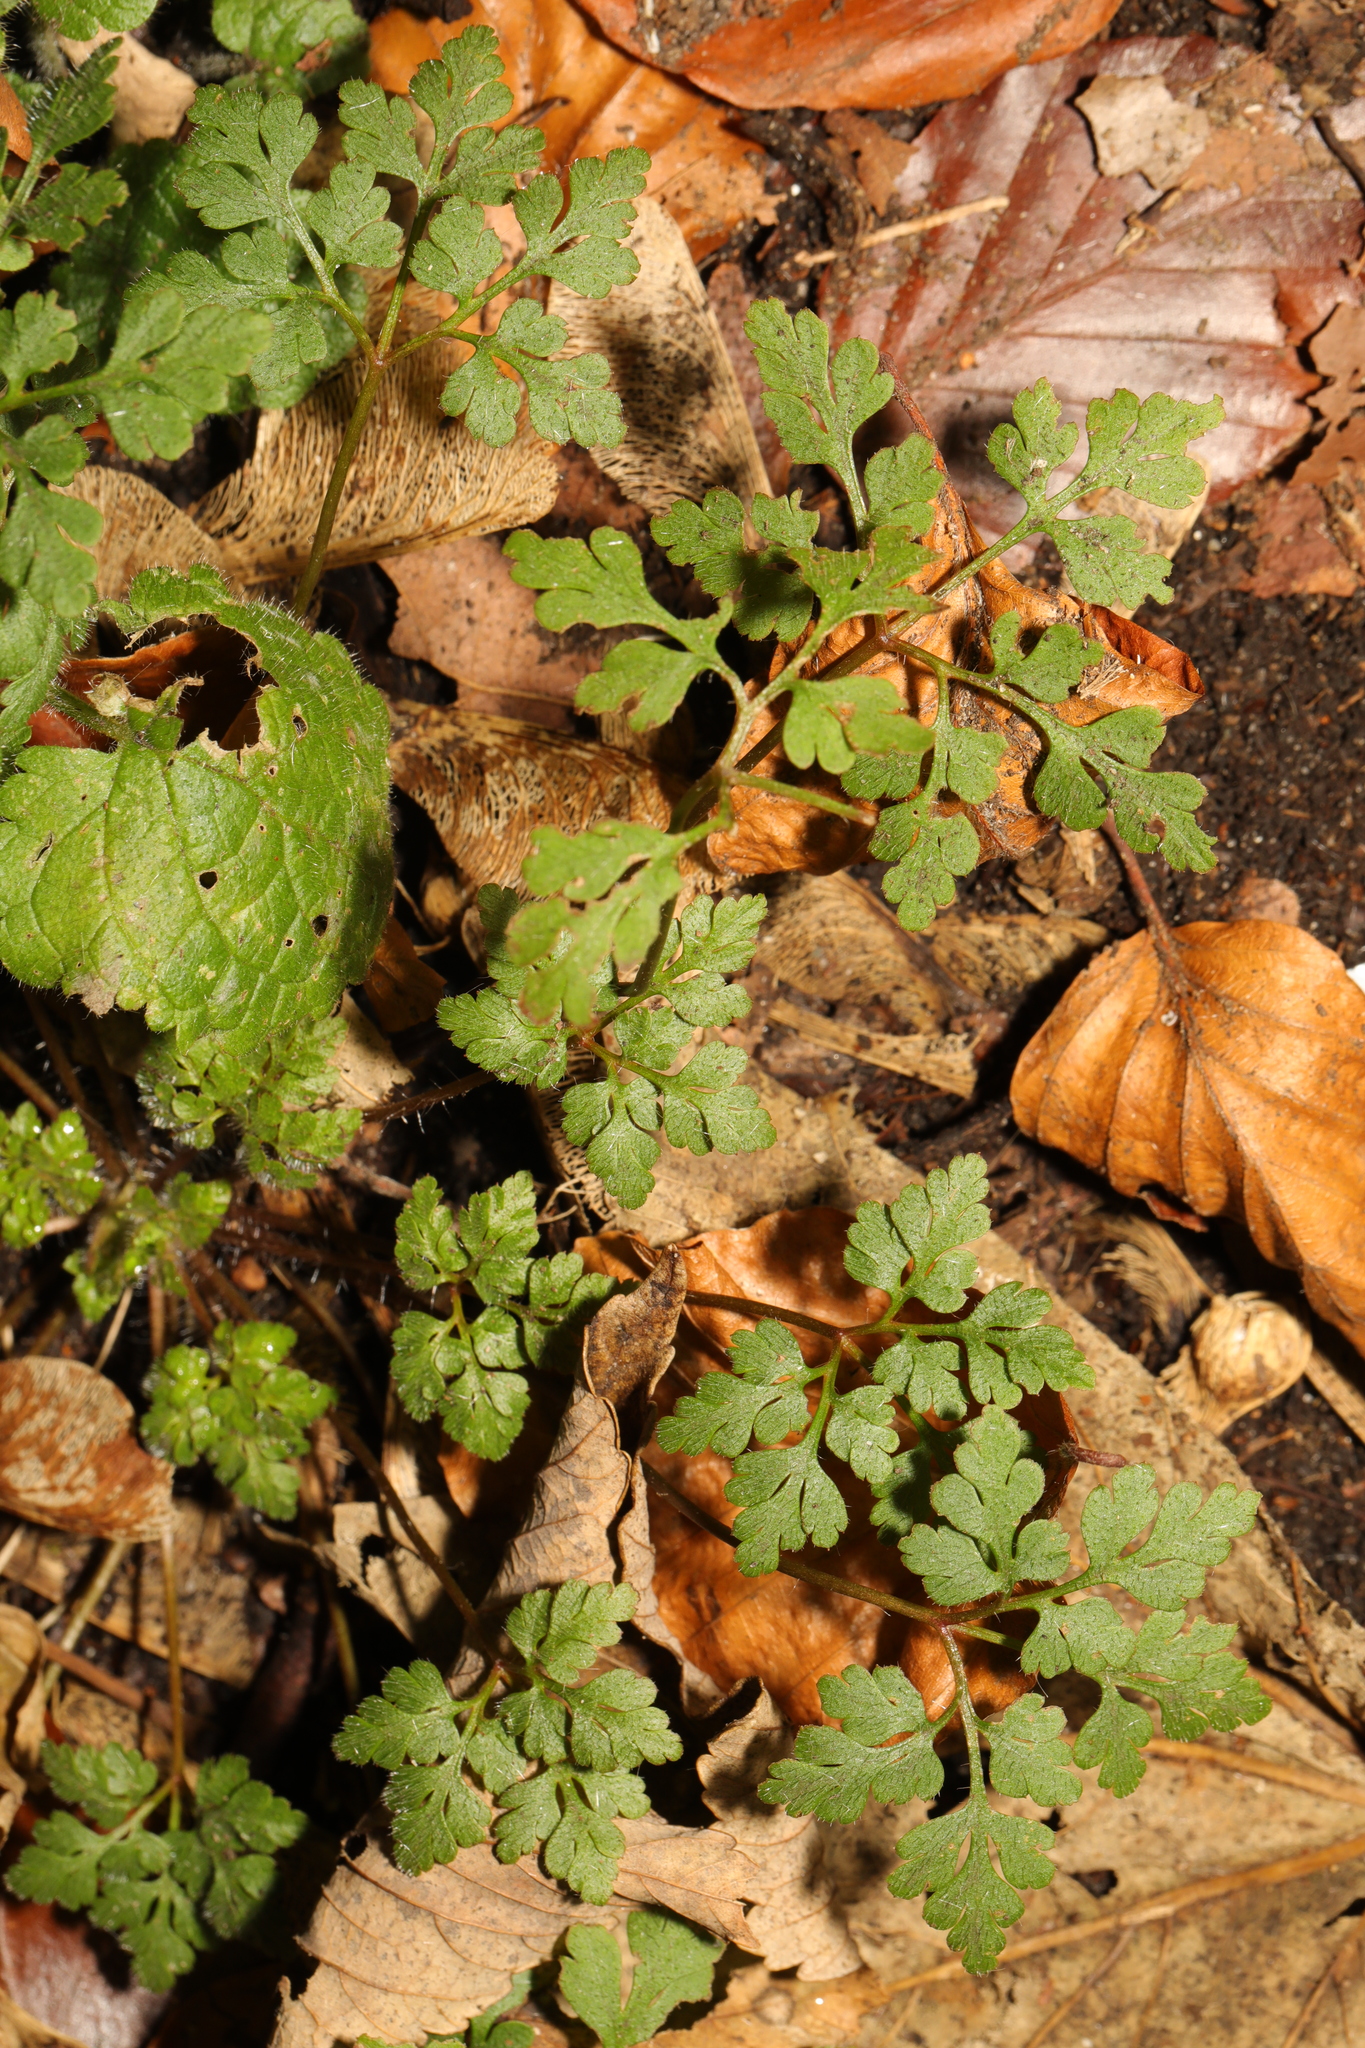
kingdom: Plantae
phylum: Tracheophyta
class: Magnoliopsida
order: Geraniales
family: Geraniaceae
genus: Geranium
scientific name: Geranium robertianum
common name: Herb-robert
